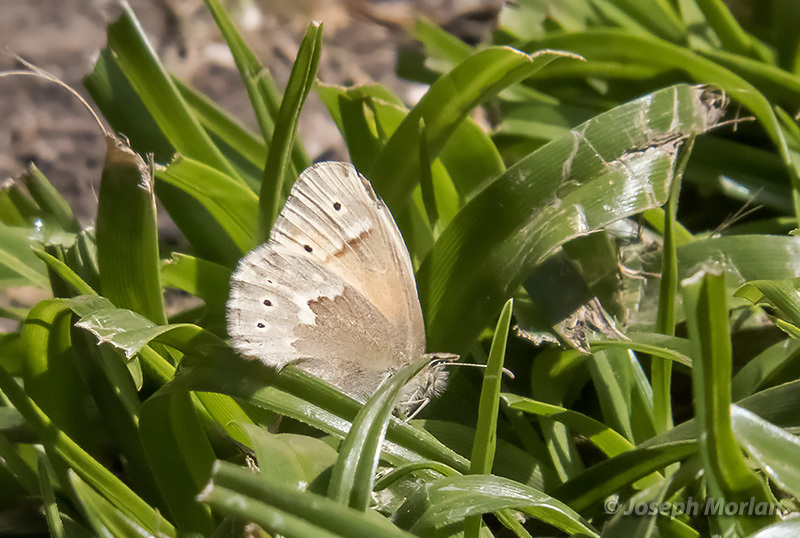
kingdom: Animalia
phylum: Arthropoda
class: Insecta
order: Lepidoptera
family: Nymphalidae
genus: Coenonympha
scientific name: Coenonympha california
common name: Common ringlet
